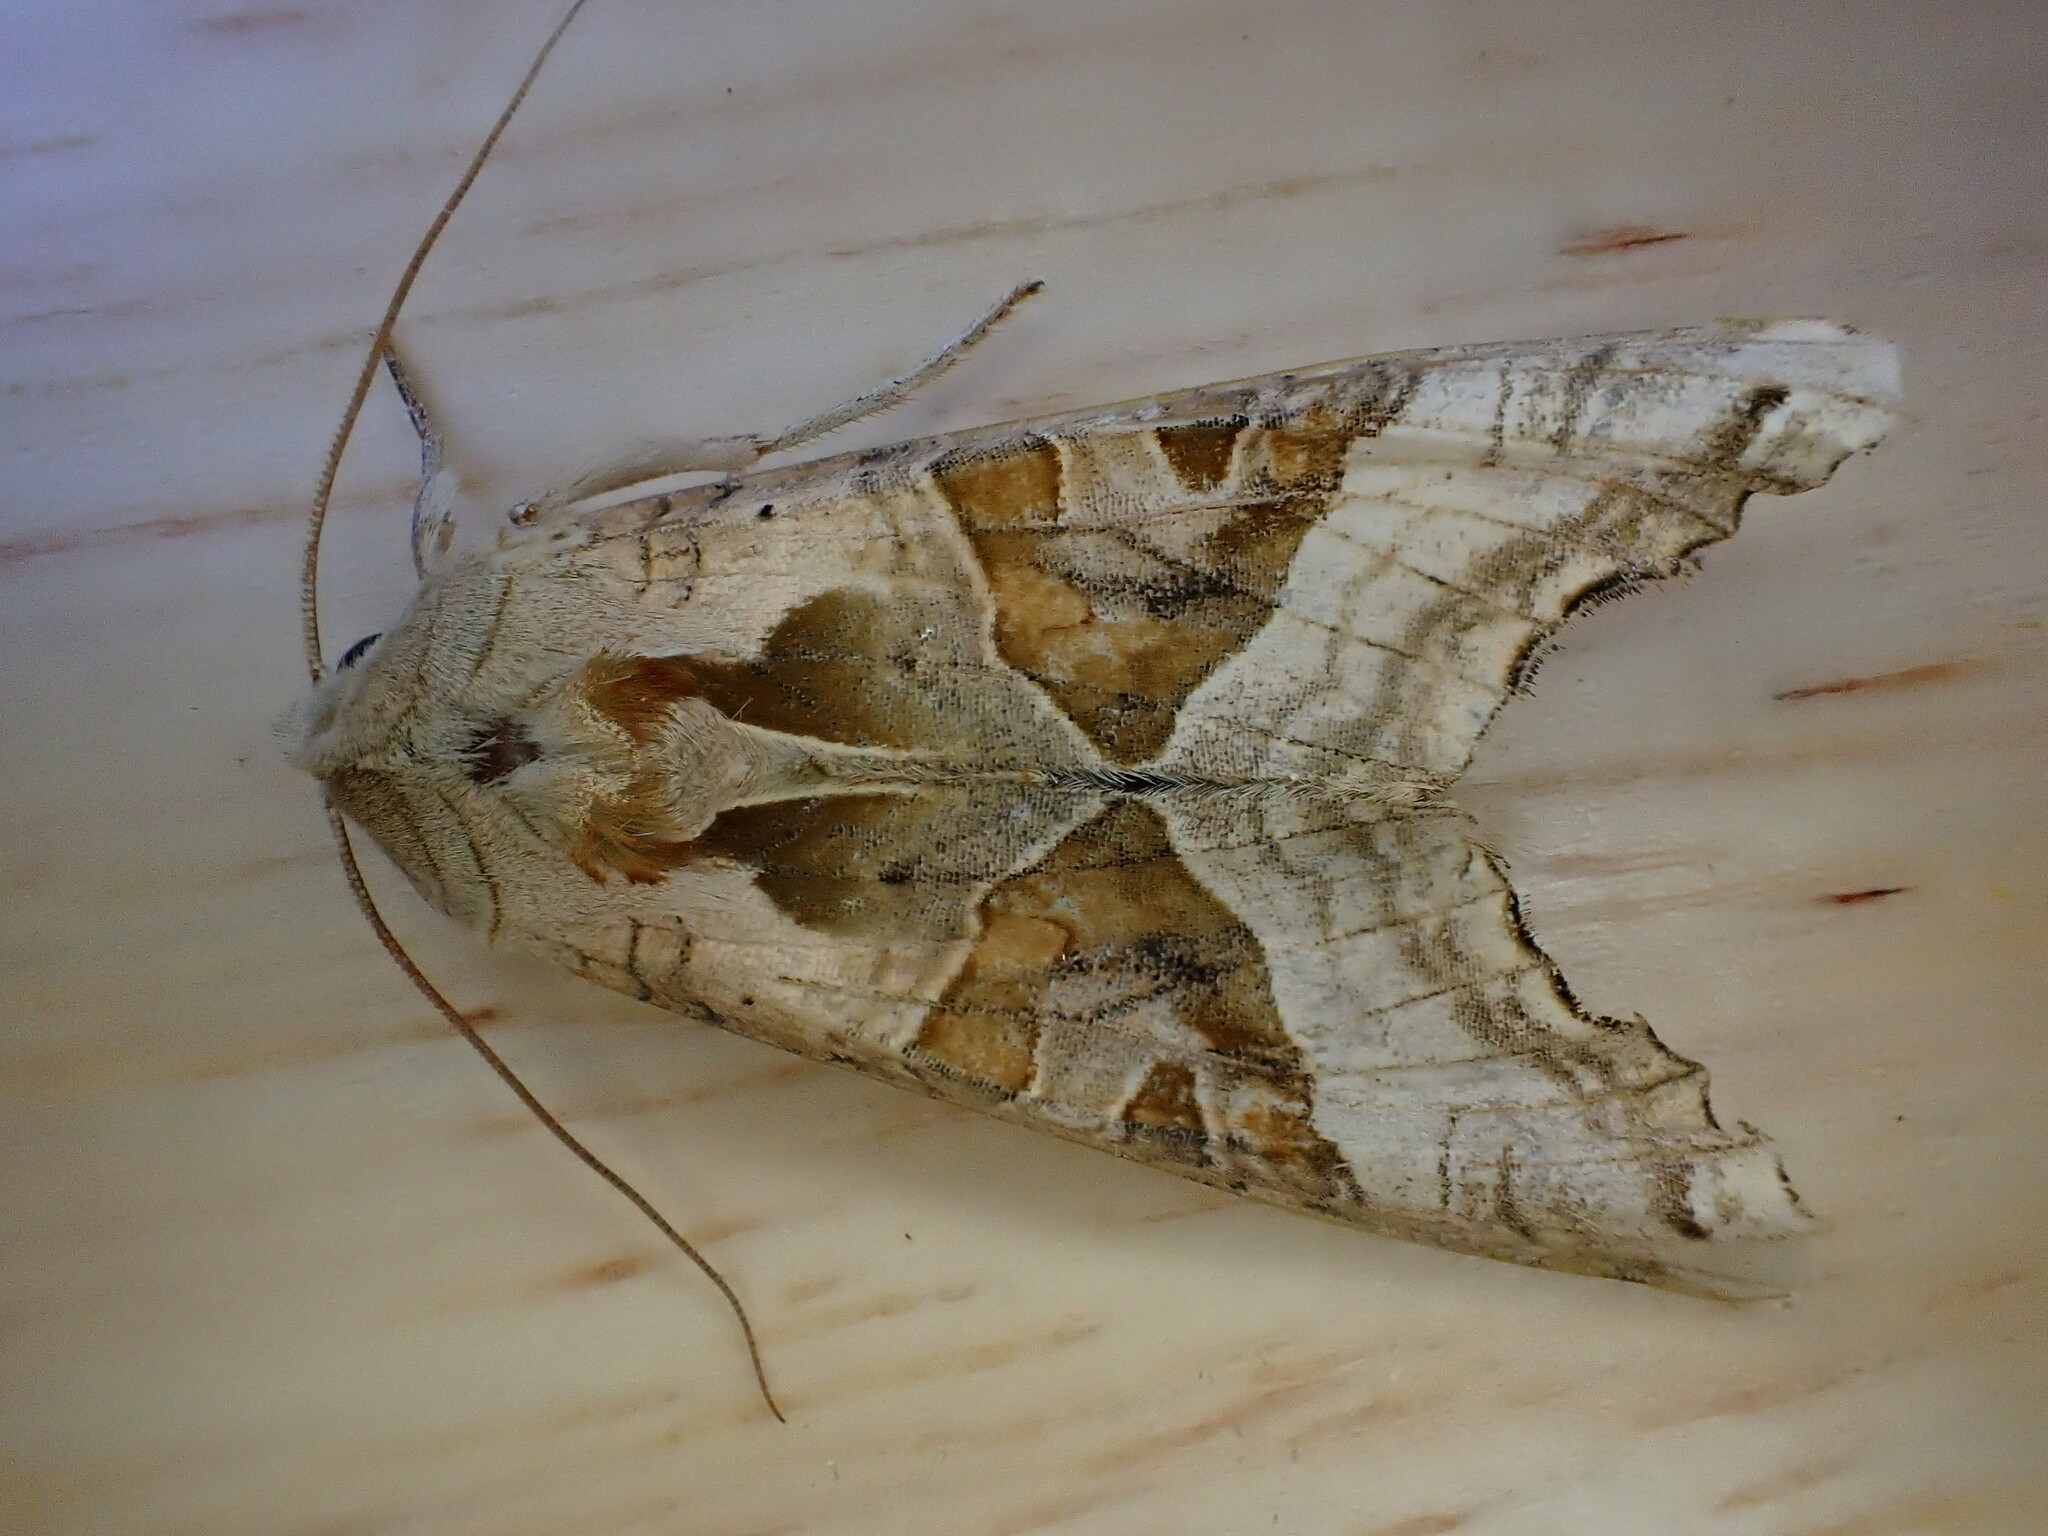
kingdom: Animalia
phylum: Arthropoda
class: Insecta
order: Lepidoptera
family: Noctuidae
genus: Phlogophora
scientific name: Phlogophora meticulosa
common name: Angle shades
